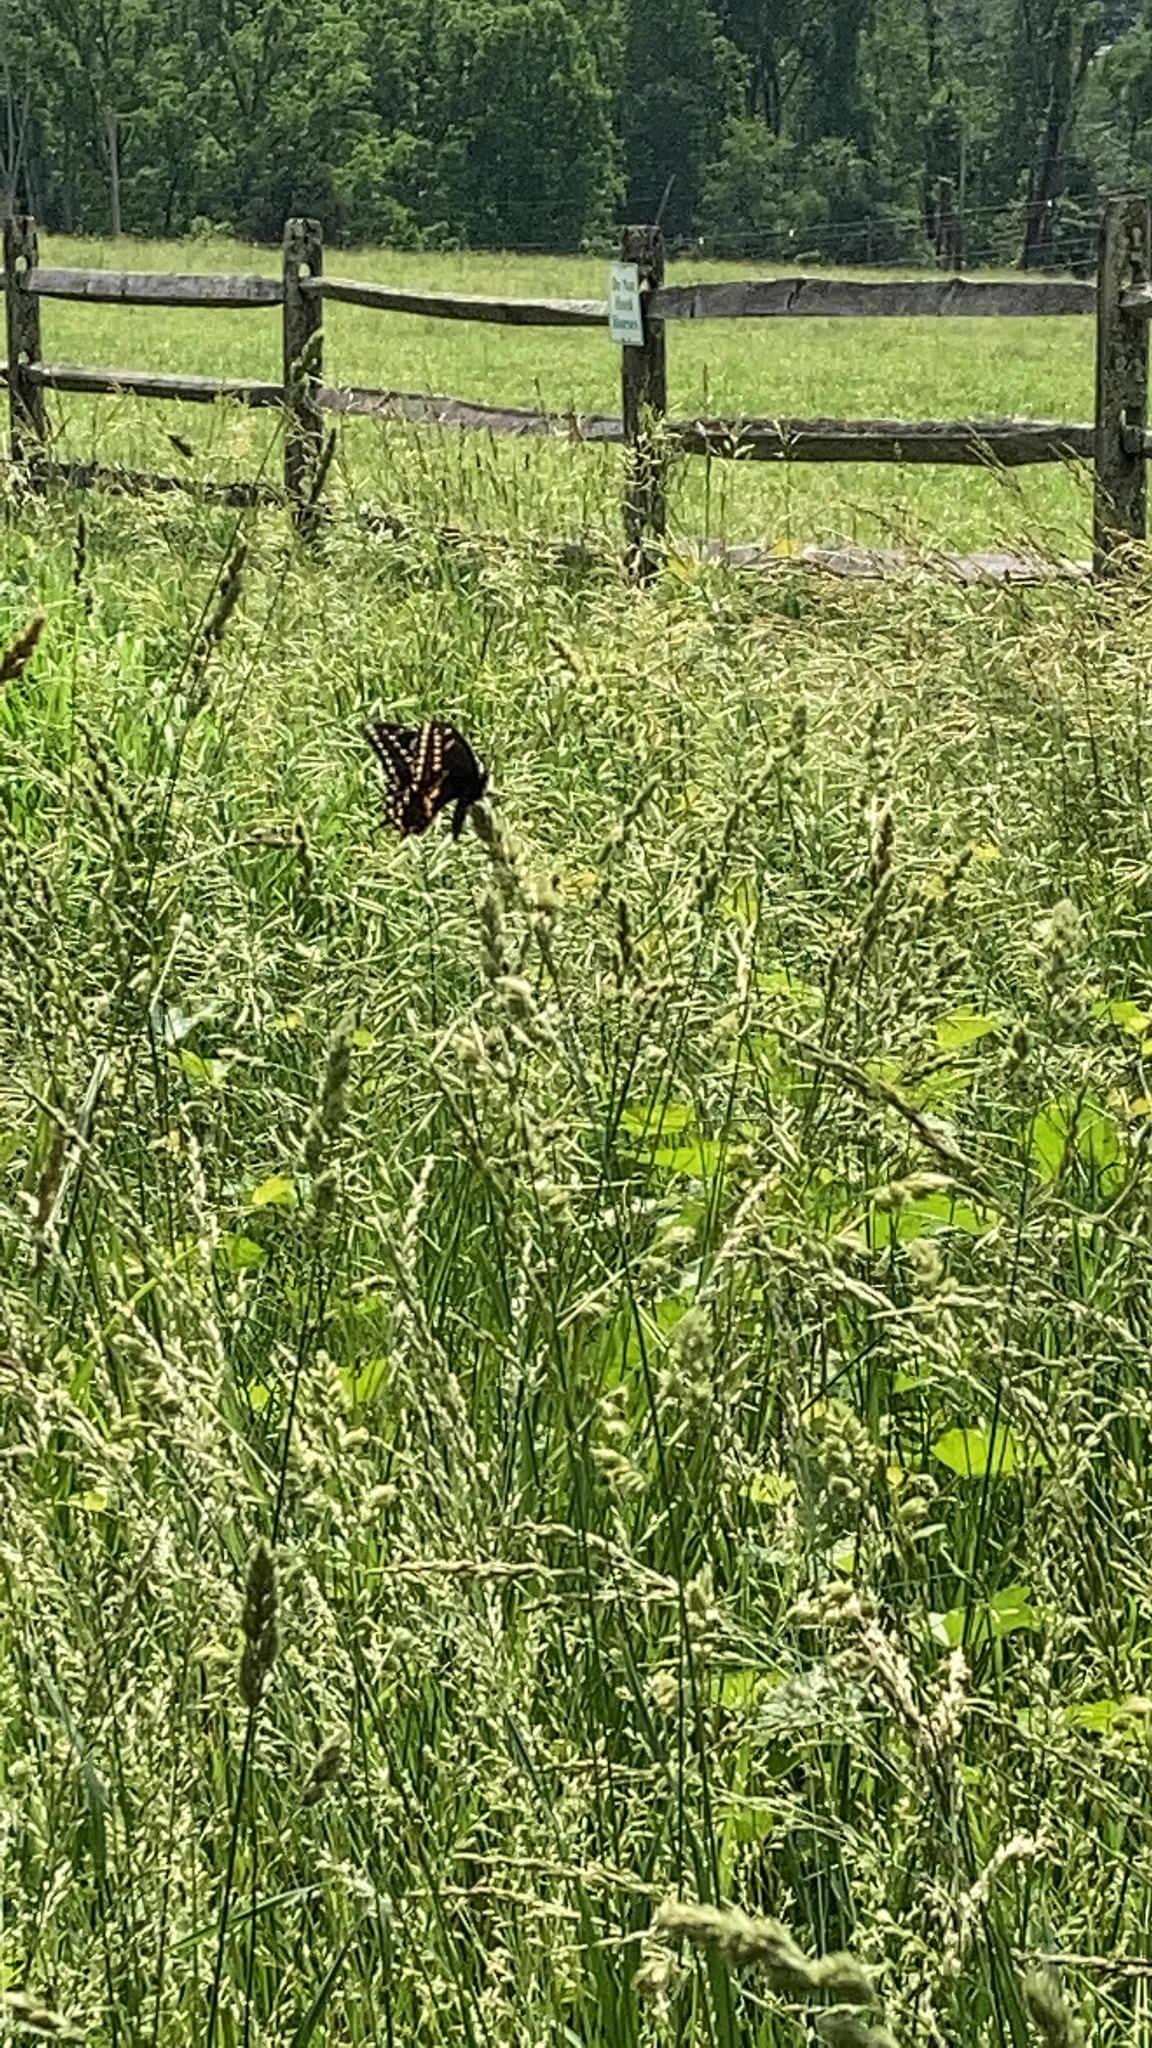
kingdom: Animalia
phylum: Arthropoda
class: Insecta
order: Lepidoptera
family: Papilionidae
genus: Papilio
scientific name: Papilio polyxenes
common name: Black swallowtail
